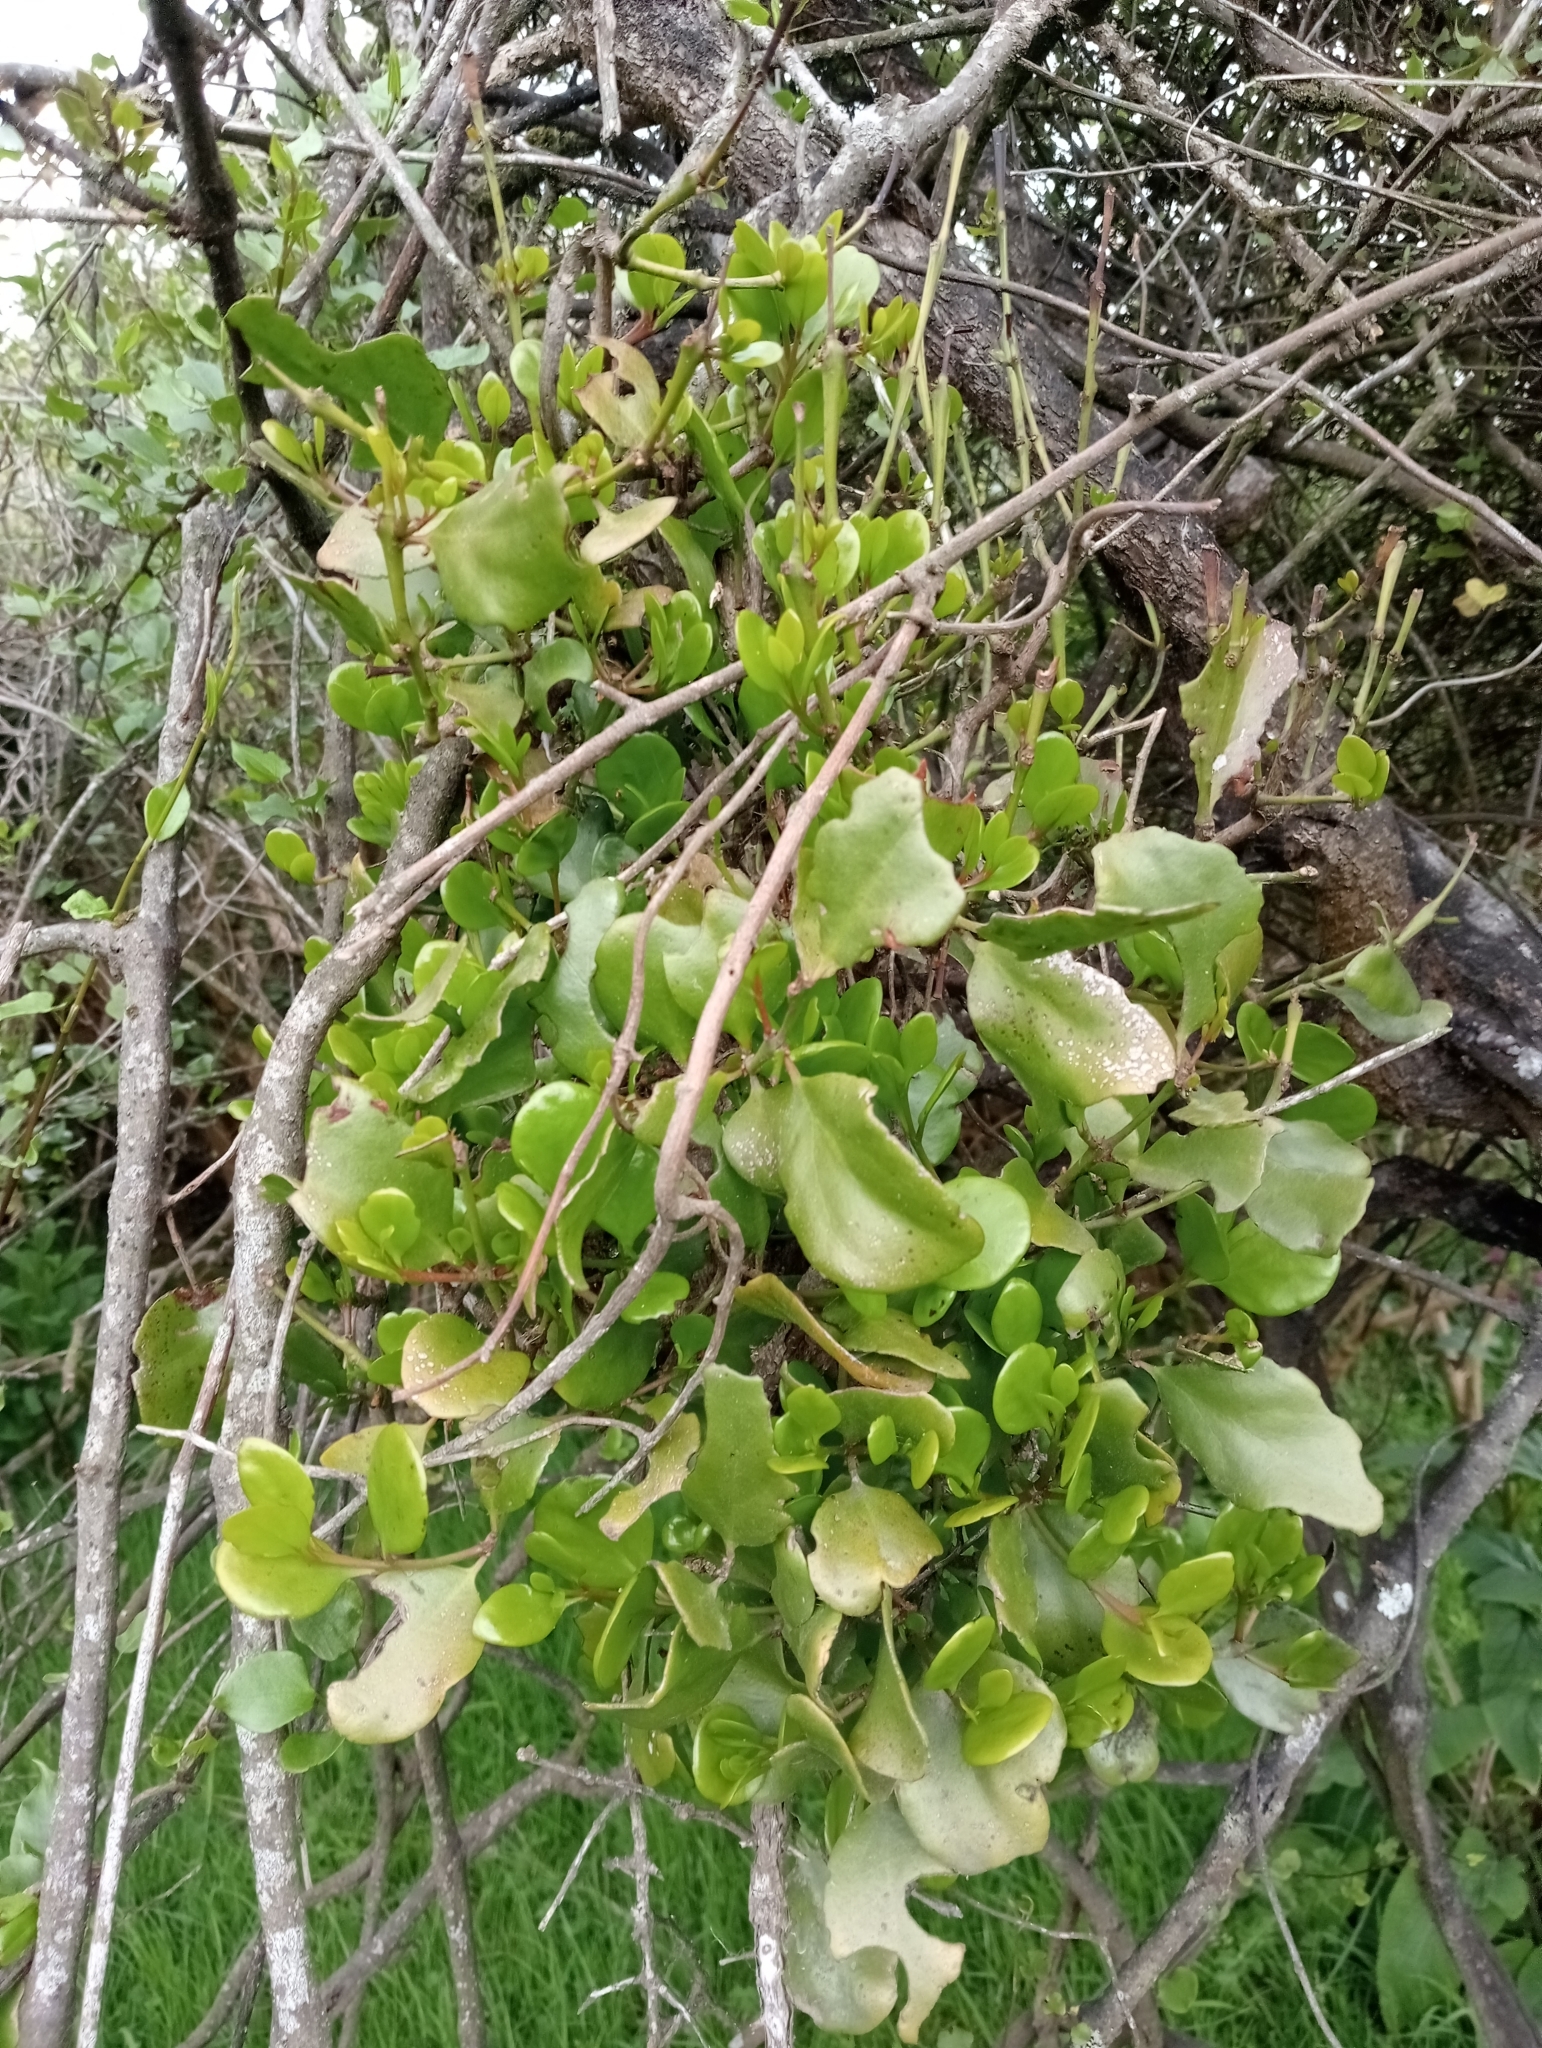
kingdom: Plantae
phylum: Tracheophyta
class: Magnoliopsida
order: Santalales
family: Loranthaceae
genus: Ileostylus
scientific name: Ileostylus micranthus
